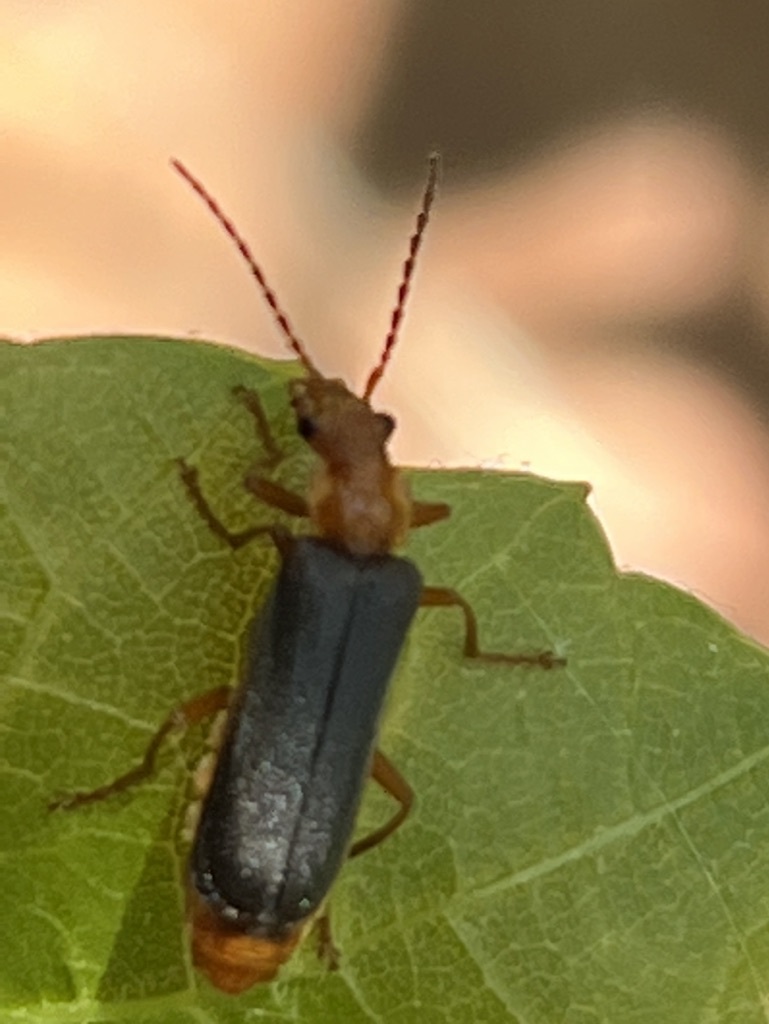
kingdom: Animalia
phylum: Arthropoda
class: Insecta
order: Coleoptera
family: Cantharidae
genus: Podabrus
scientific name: Podabrus pruinosus
